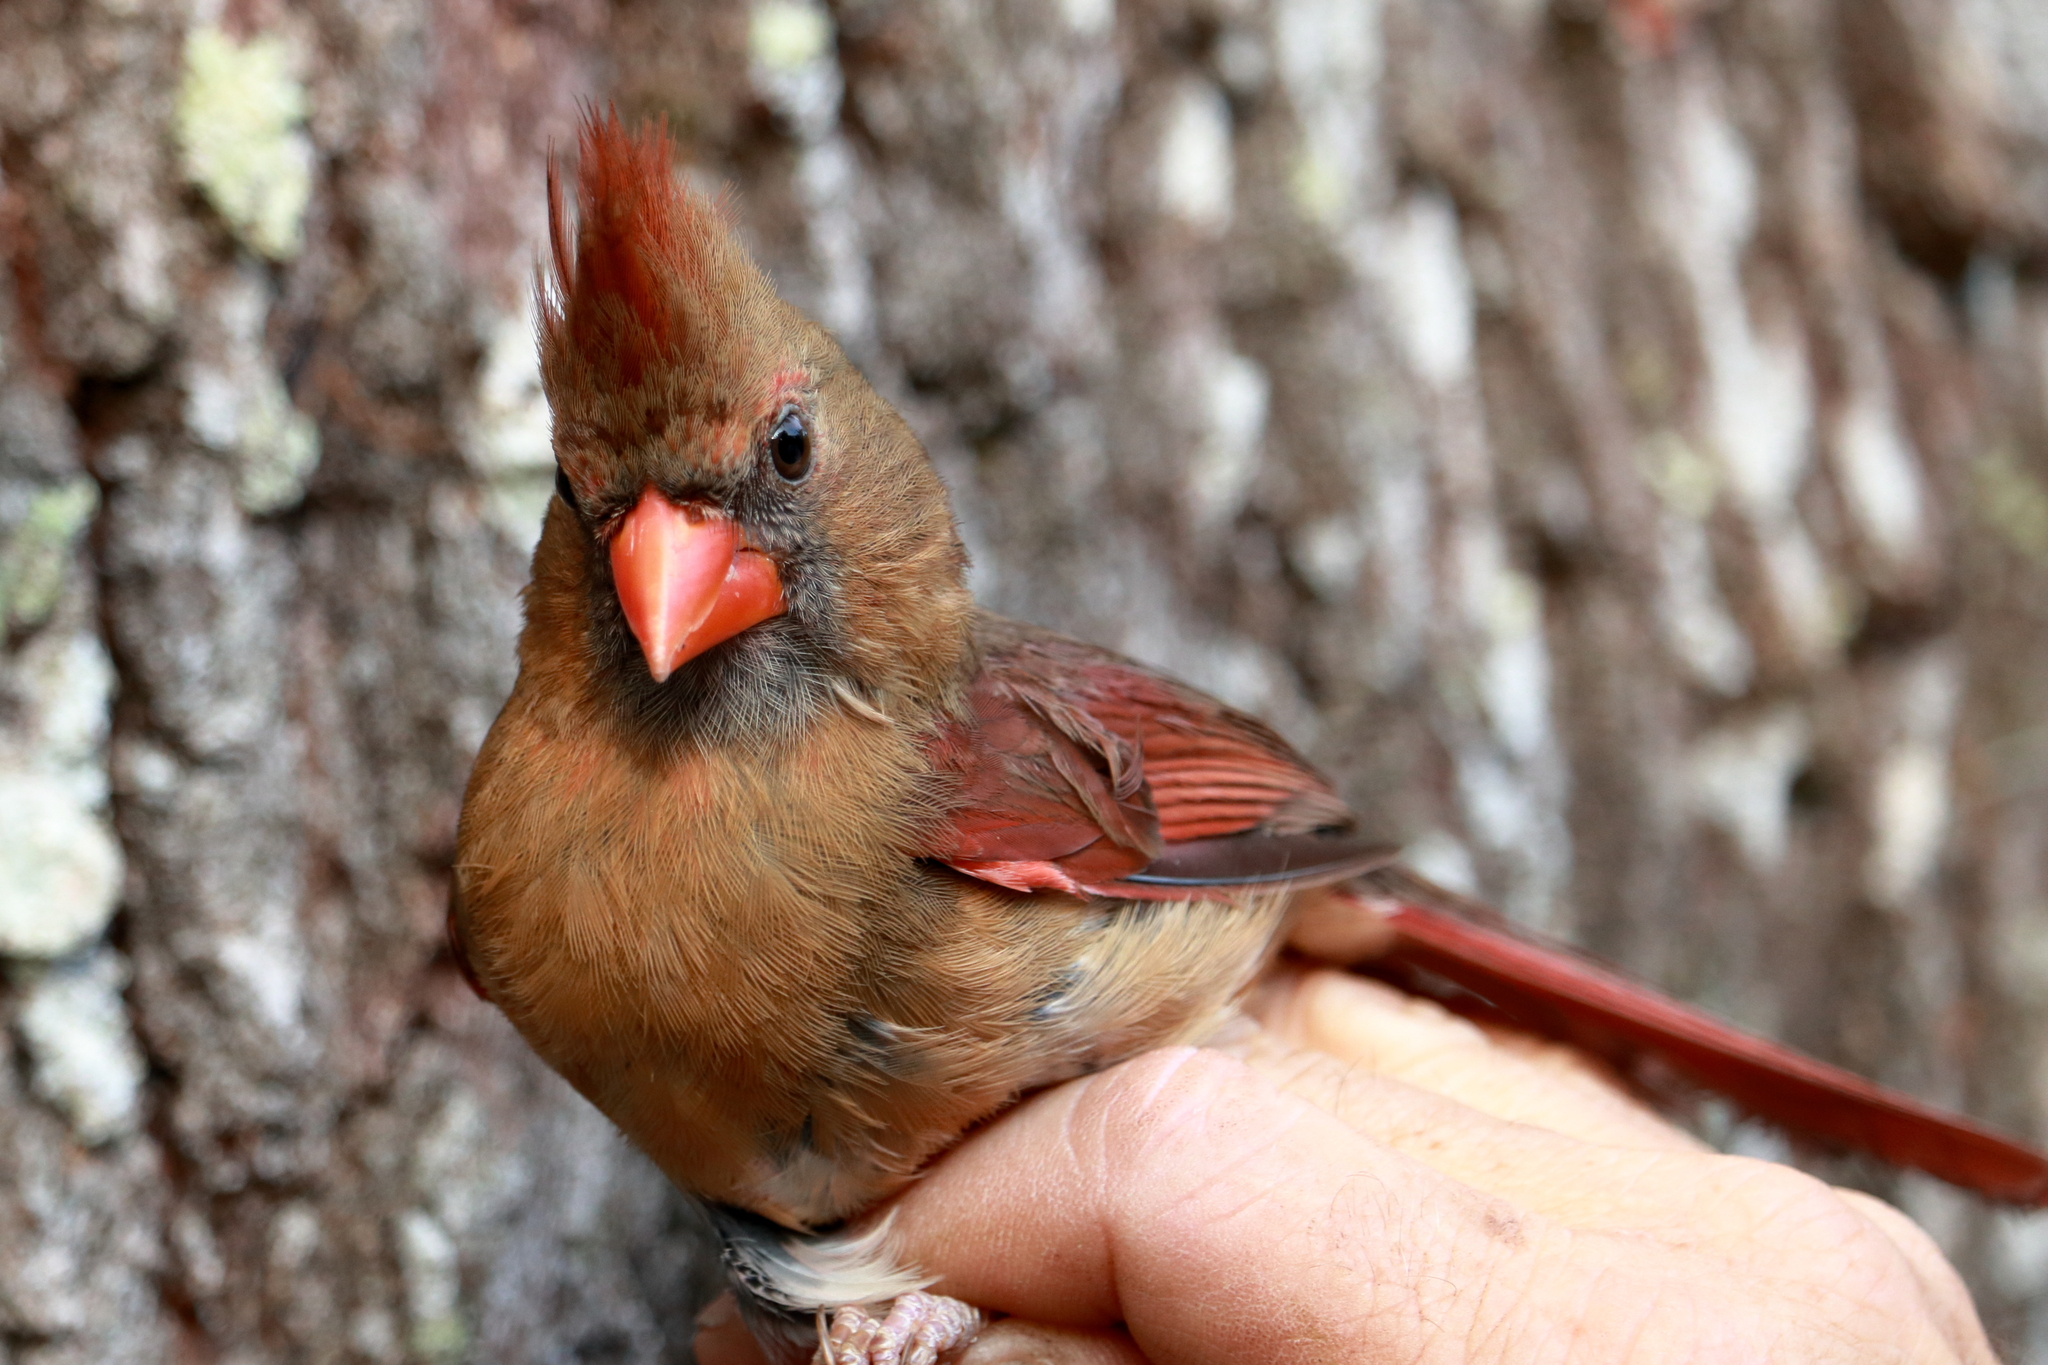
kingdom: Animalia
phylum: Chordata
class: Aves
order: Passeriformes
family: Cardinalidae
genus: Cardinalis
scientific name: Cardinalis cardinalis
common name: Northern cardinal
